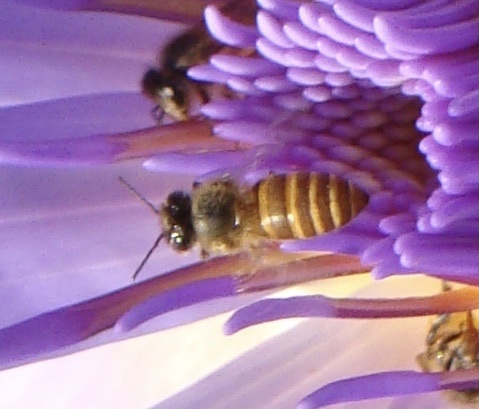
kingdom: Animalia
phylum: Arthropoda
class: Insecta
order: Hymenoptera
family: Apidae
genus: Apis
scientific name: Apis cerana
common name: Honey bee
